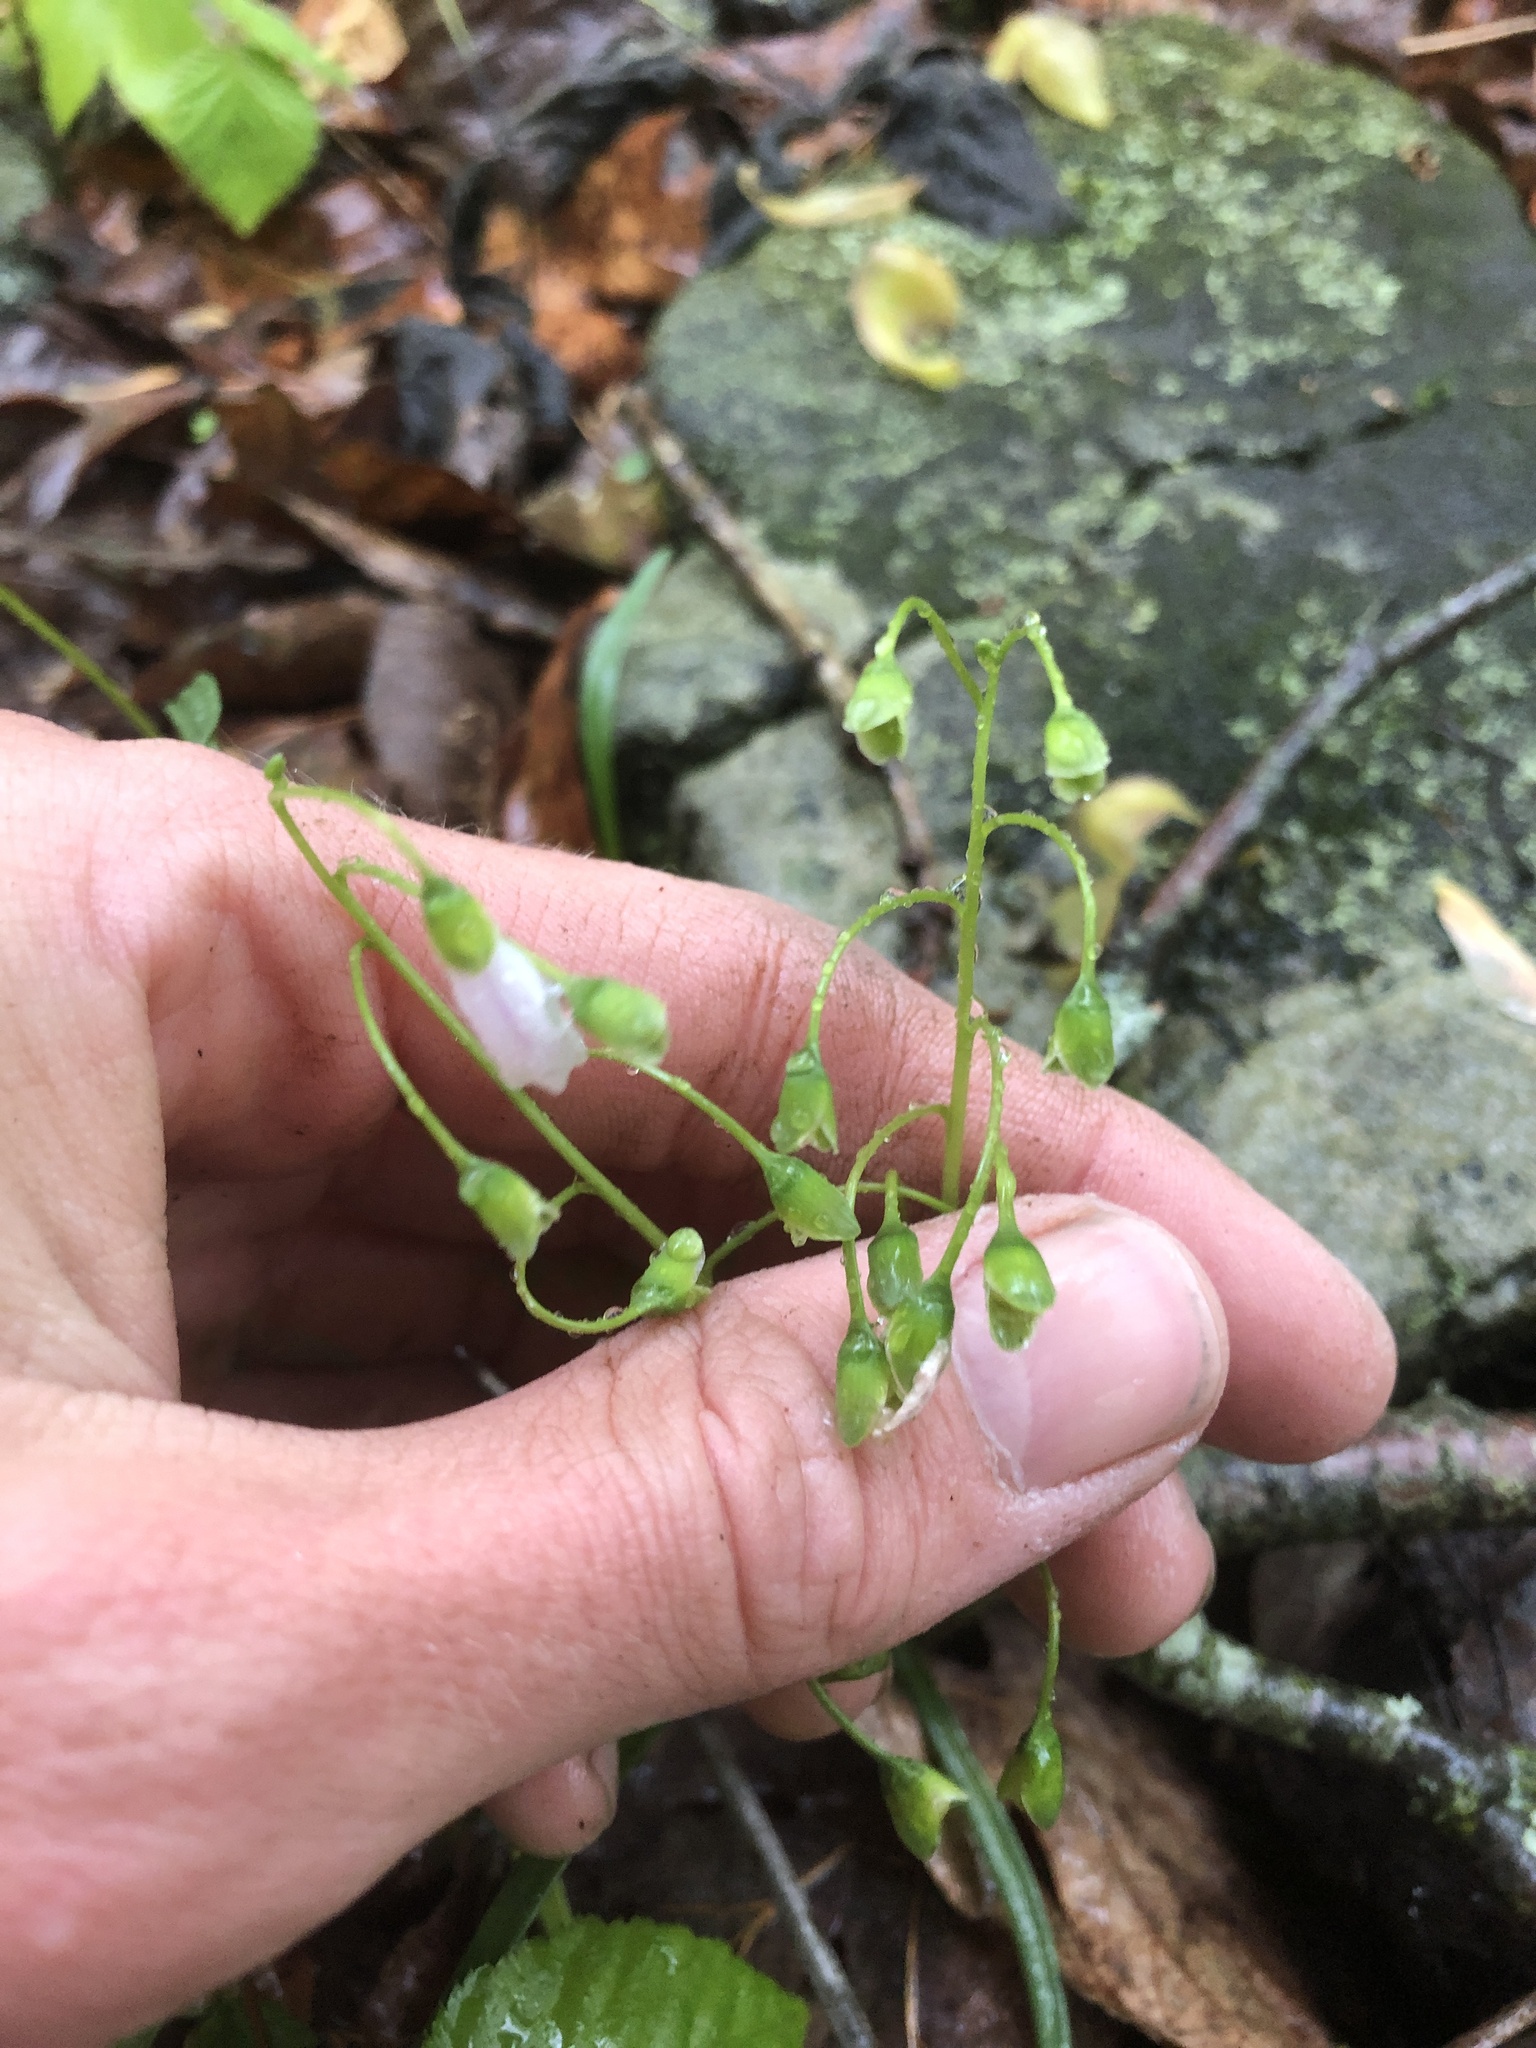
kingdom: Plantae
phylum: Tracheophyta
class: Magnoliopsida
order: Caryophyllales
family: Montiaceae
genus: Claytonia
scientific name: Claytonia virginica
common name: Virginia springbeauty
